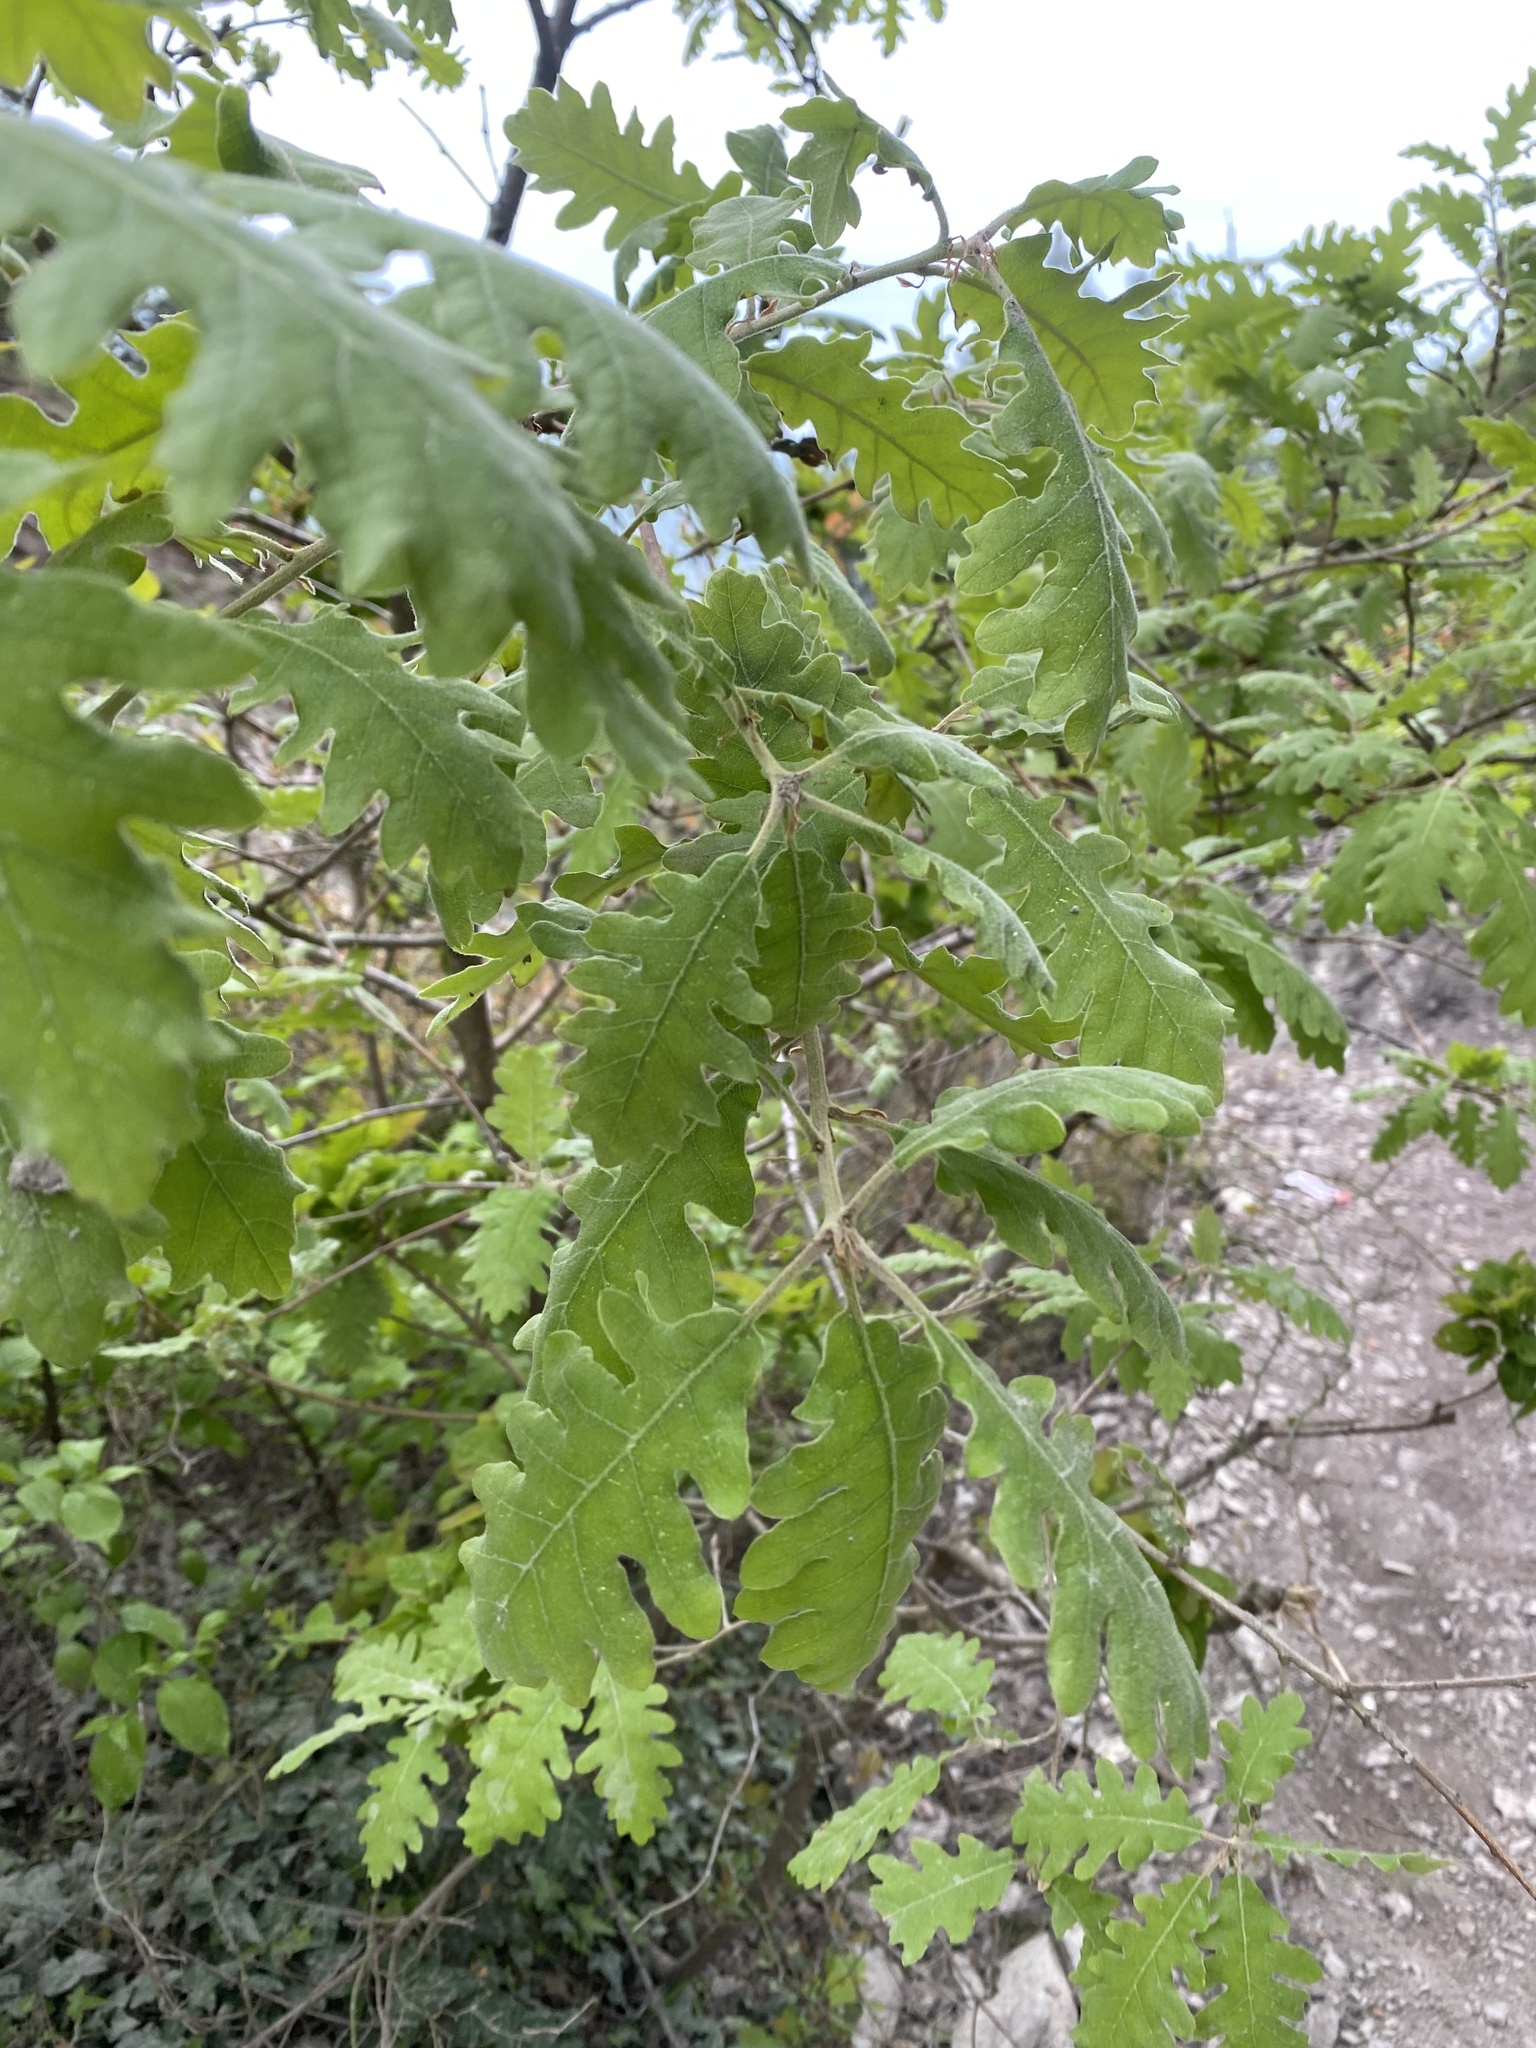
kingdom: Plantae
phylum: Tracheophyta
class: Magnoliopsida
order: Fagales
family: Fagaceae
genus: Quercus
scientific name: Quercus pubescens
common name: Downy oak
